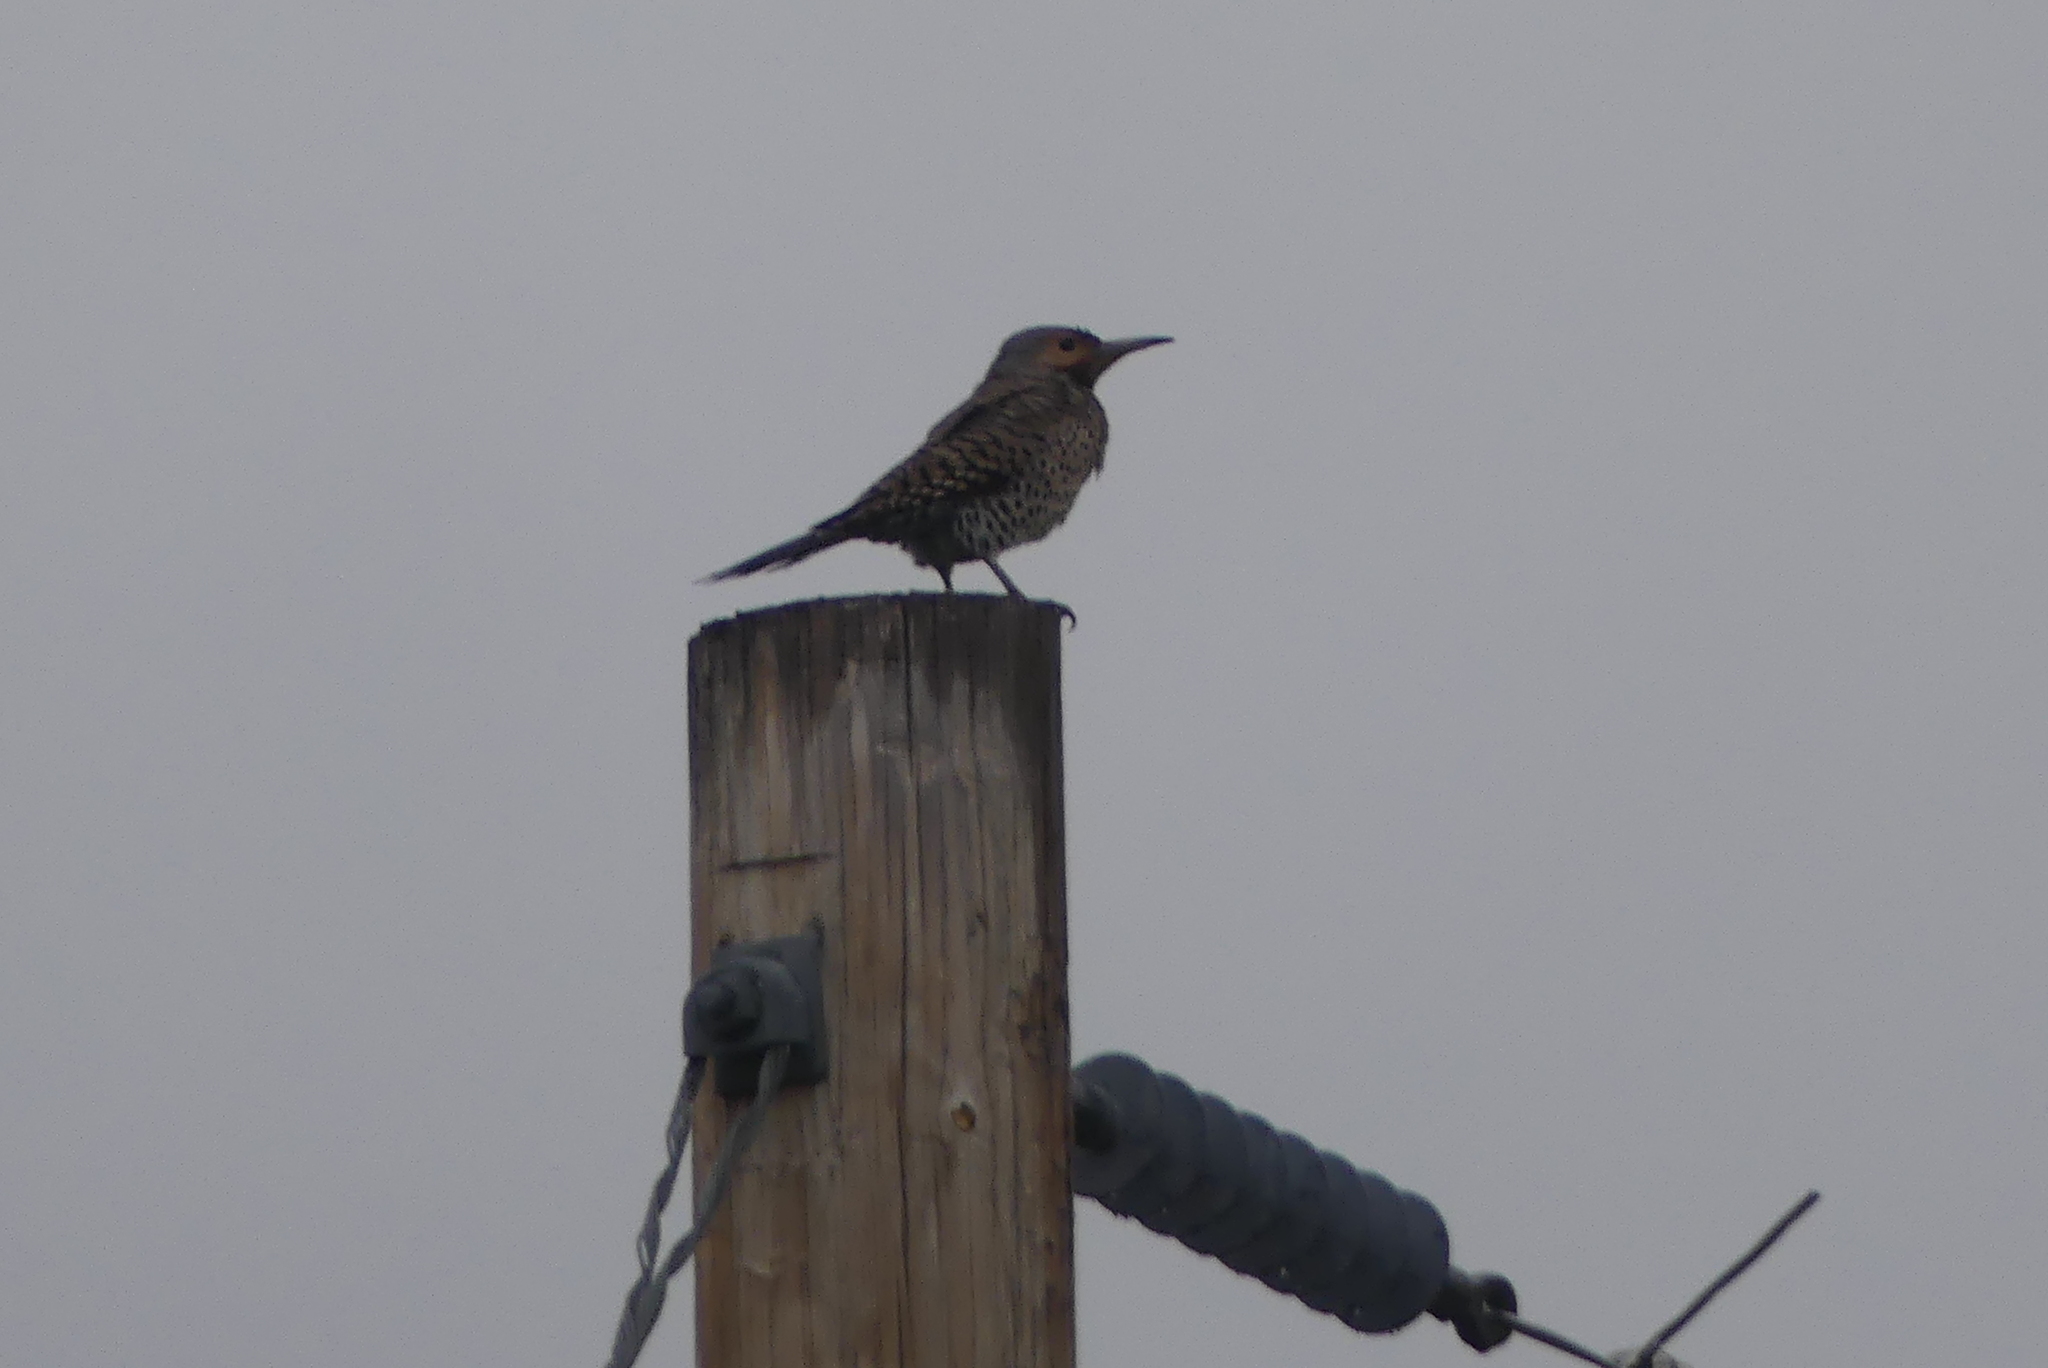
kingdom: Animalia
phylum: Chordata
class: Aves
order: Piciformes
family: Picidae
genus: Colaptes
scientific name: Colaptes auratus
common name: Northern flicker
